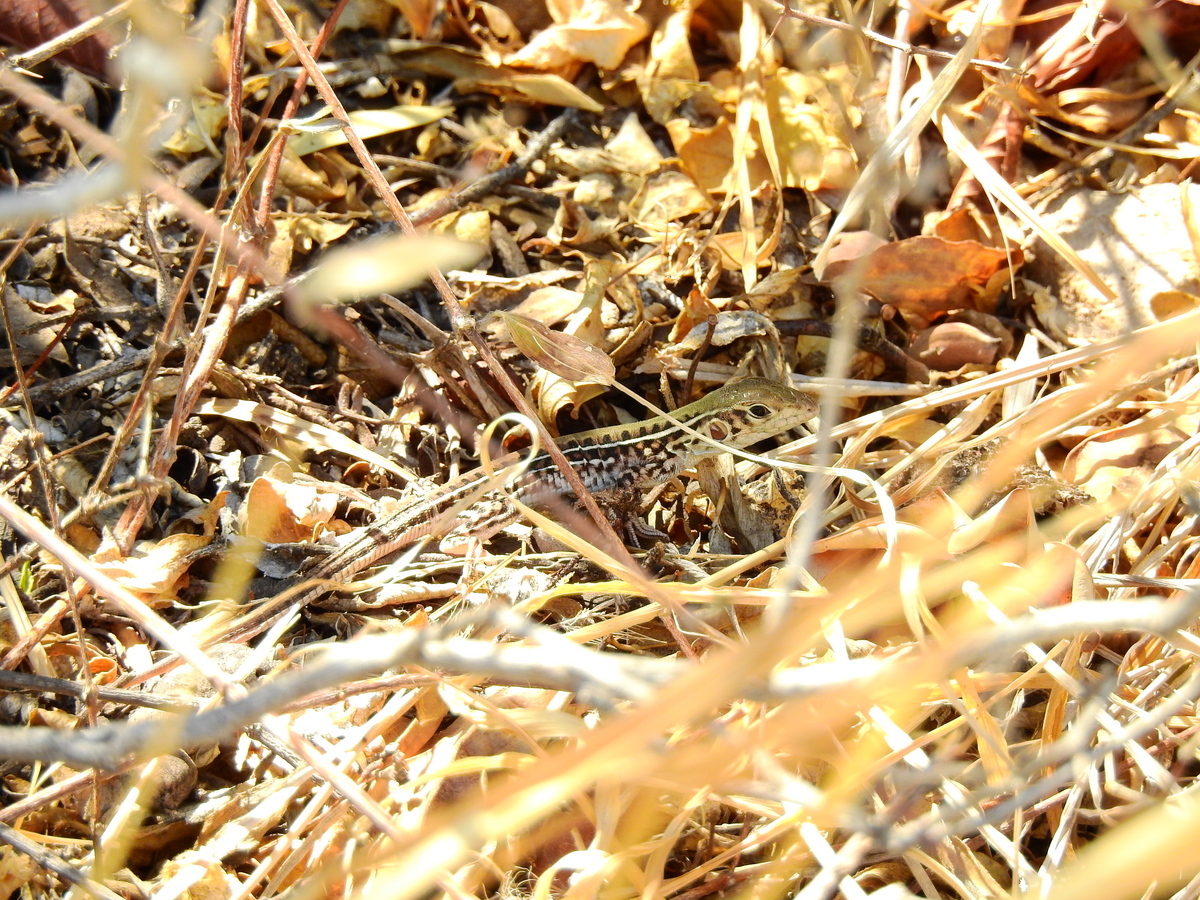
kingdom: Animalia
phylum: Chordata
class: Squamata
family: Teiidae
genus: Teius
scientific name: Teius suquiensis
